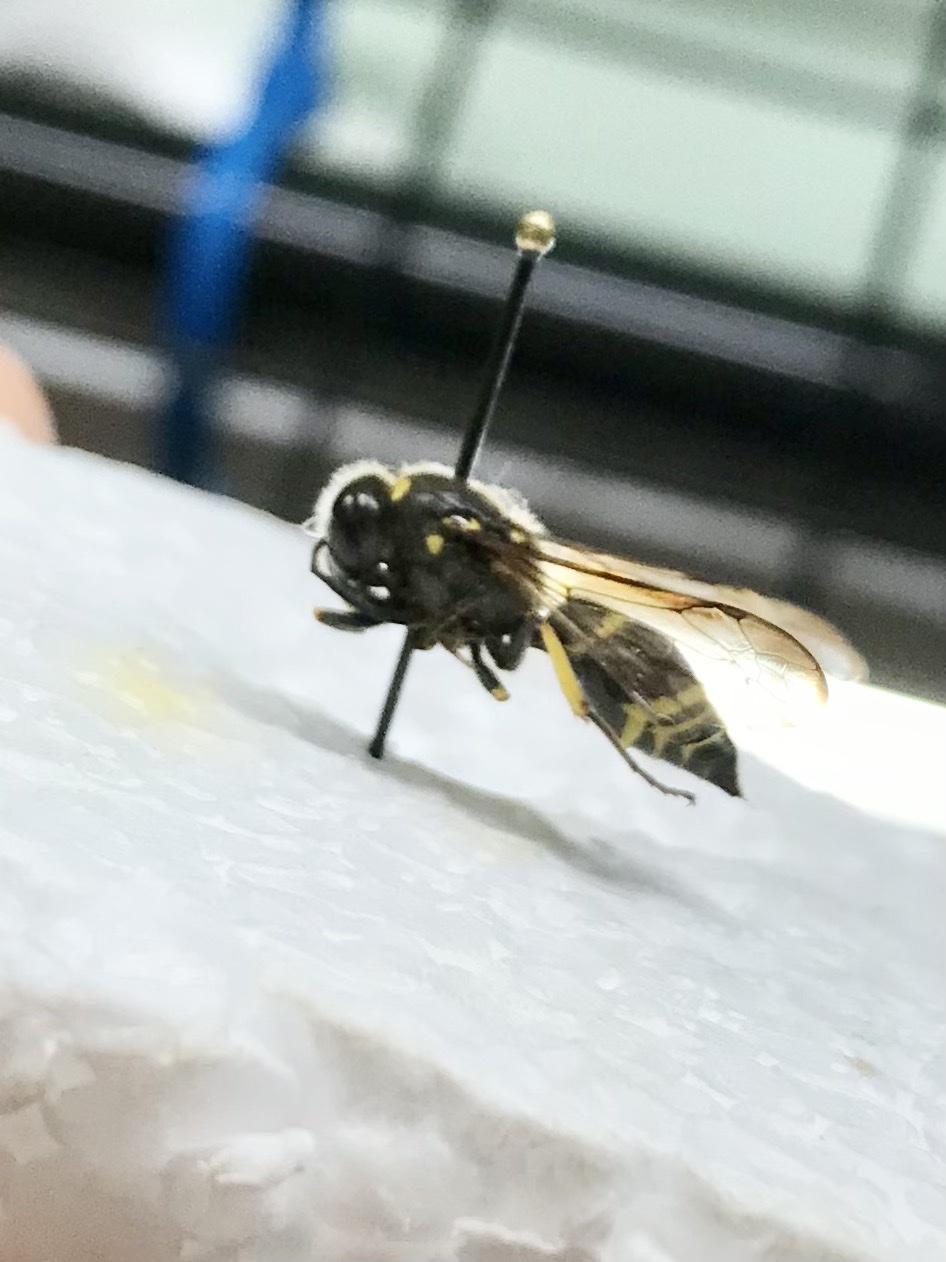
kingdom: Animalia
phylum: Arthropoda
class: Insecta
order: Hymenoptera
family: Vespidae
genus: Ancistrocerus
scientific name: Ancistrocerus
